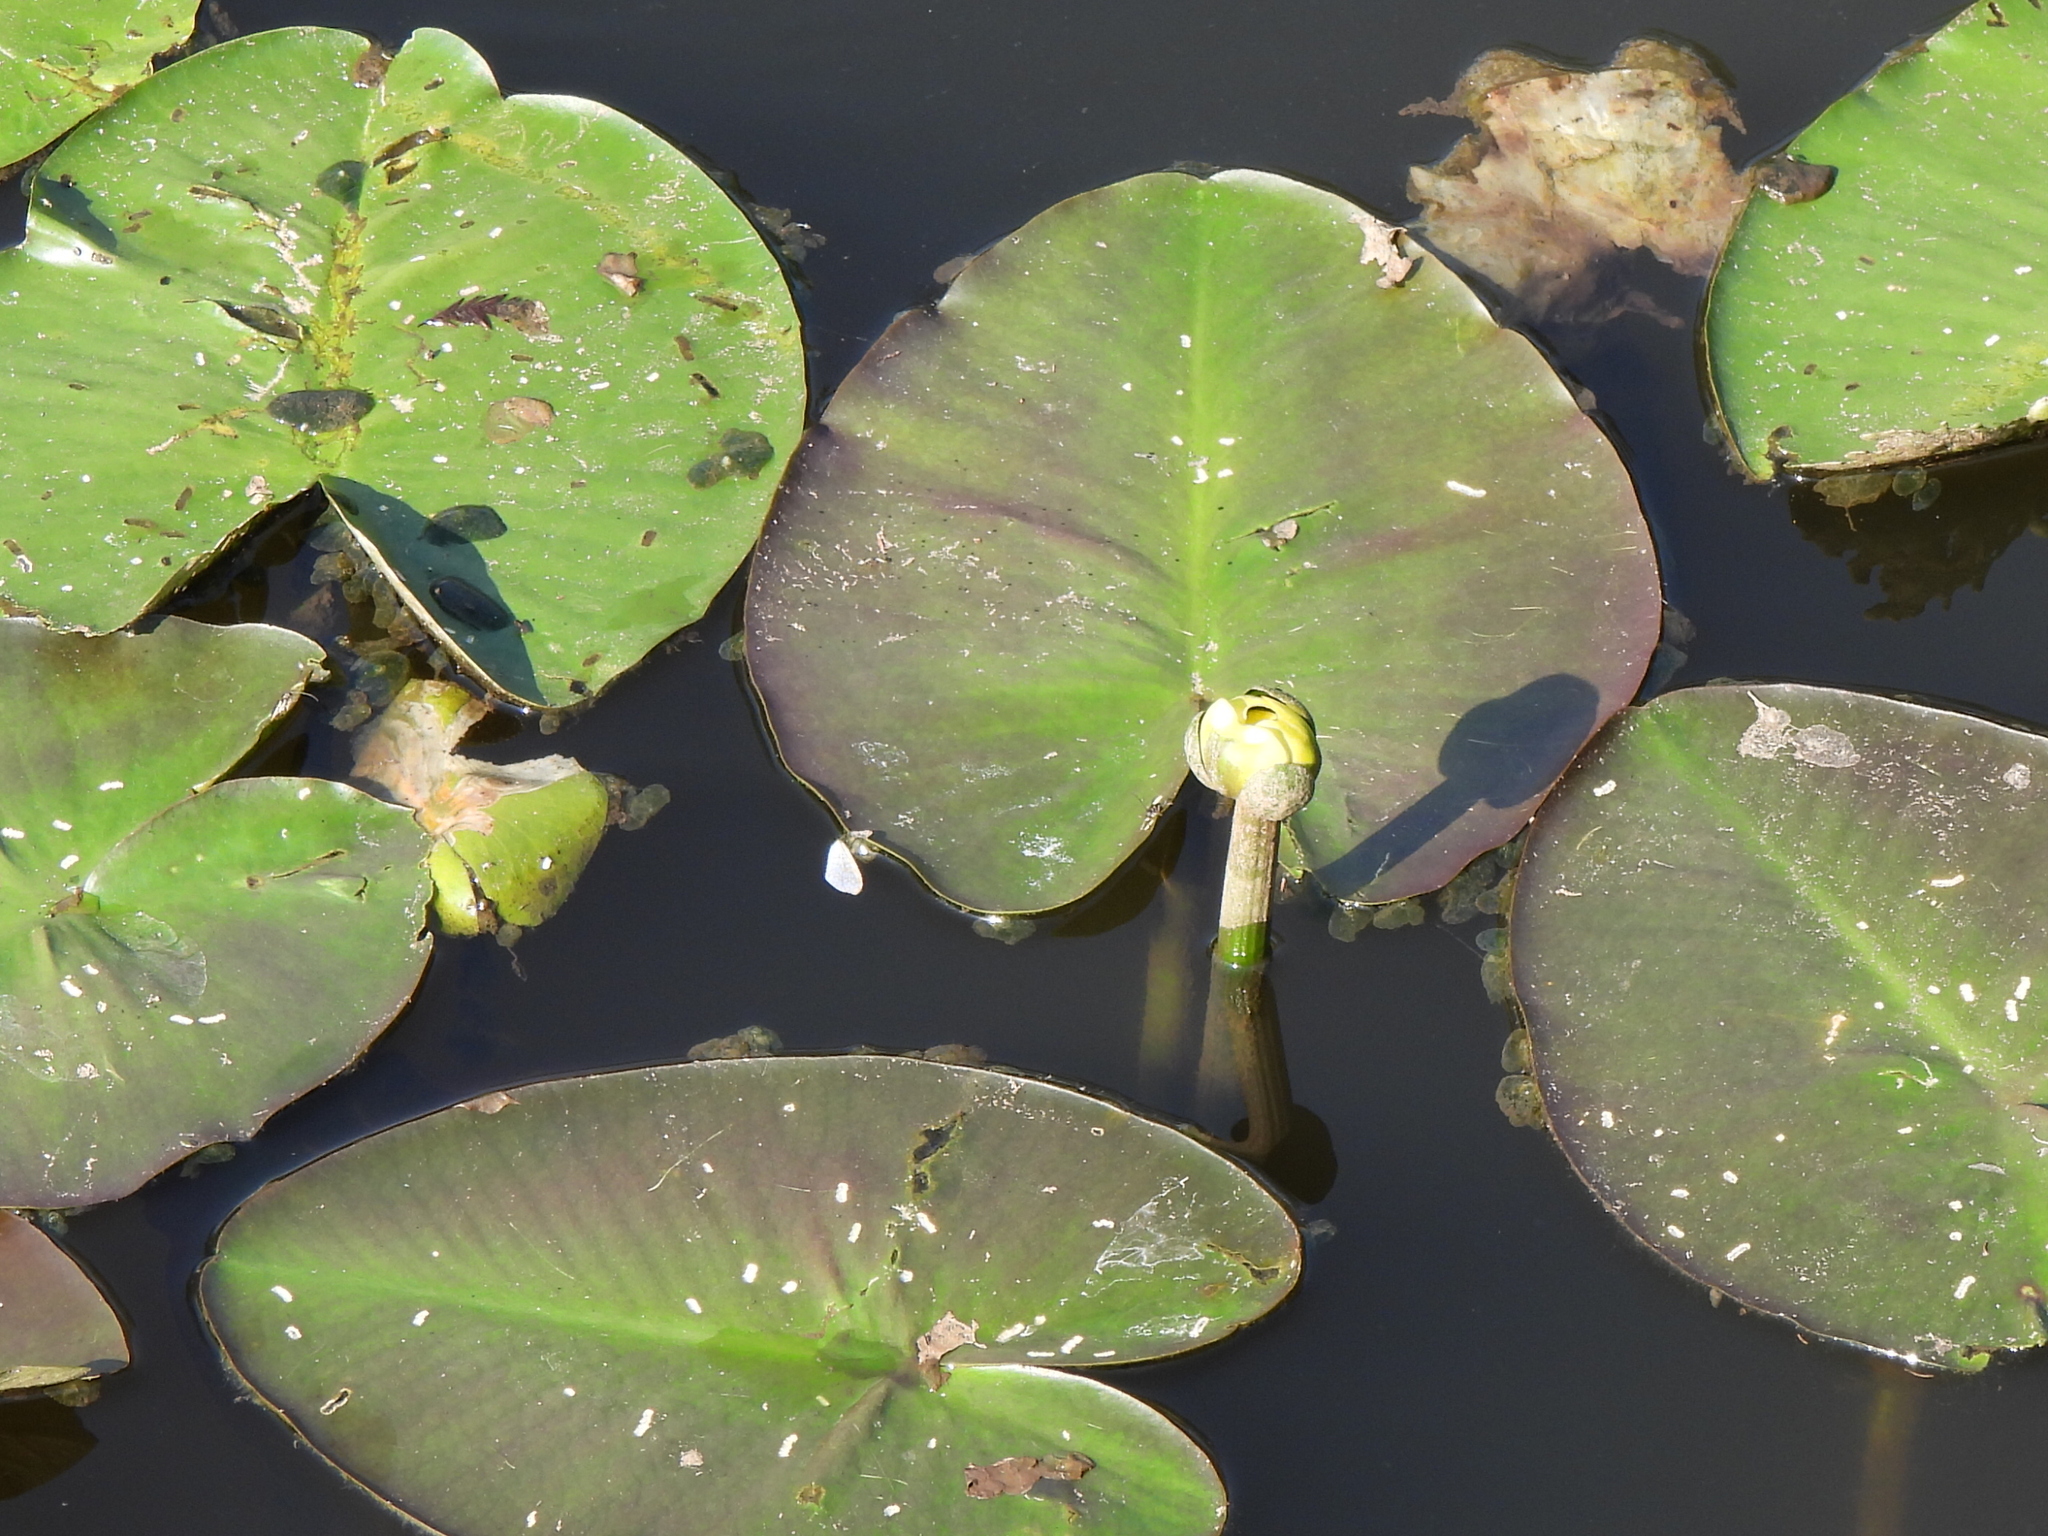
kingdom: Plantae
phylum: Tracheophyta
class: Magnoliopsida
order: Nymphaeales
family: Nymphaeaceae
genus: Nuphar
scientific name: Nuphar advena
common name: Spatter-dock
